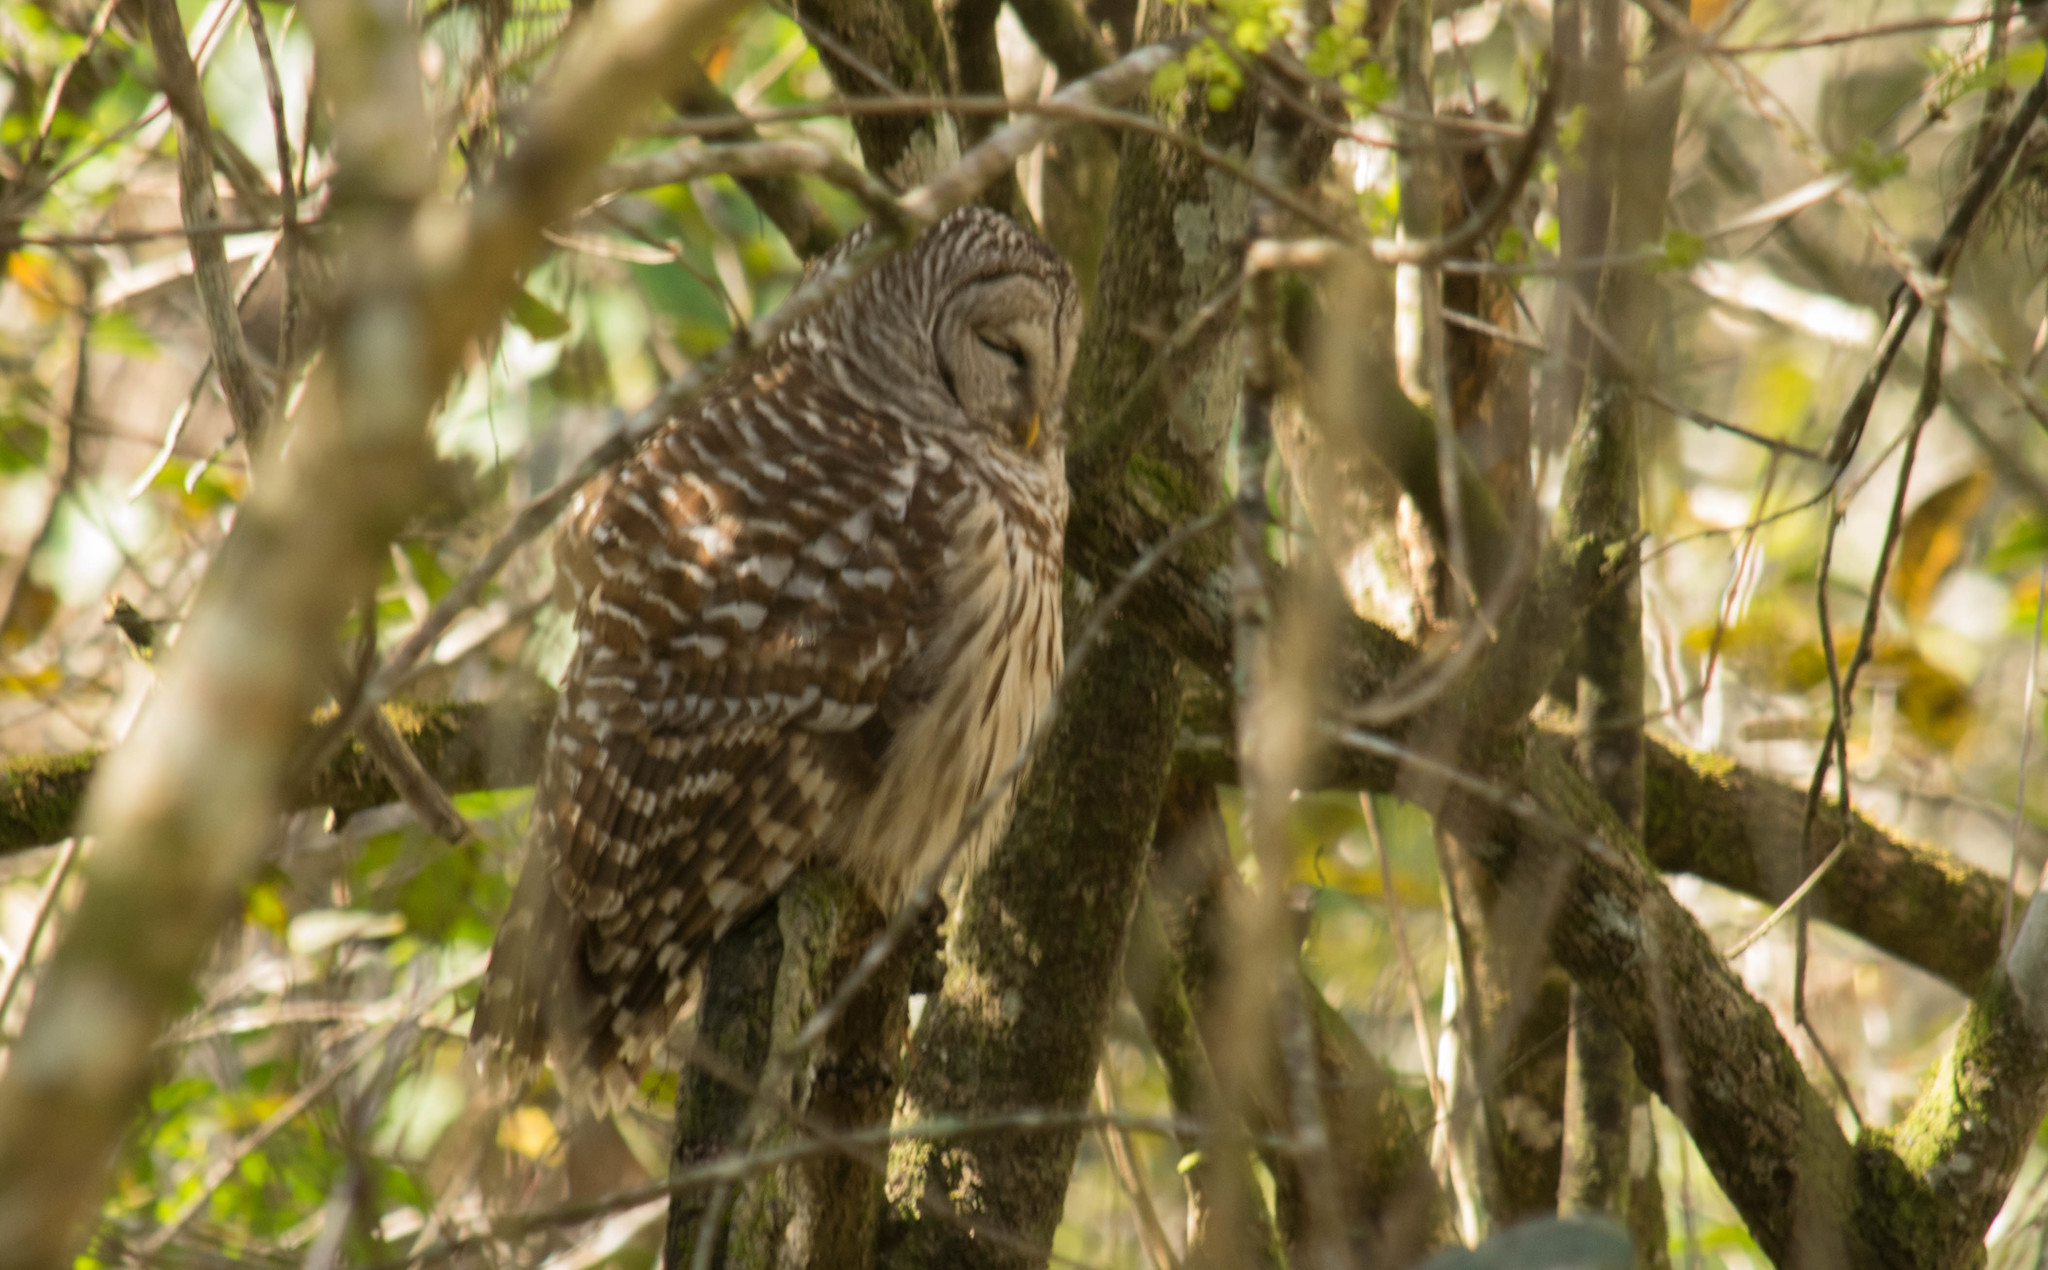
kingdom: Animalia
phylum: Chordata
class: Aves
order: Strigiformes
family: Strigidae
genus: Strix
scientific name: Strix varia
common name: Barred owl
